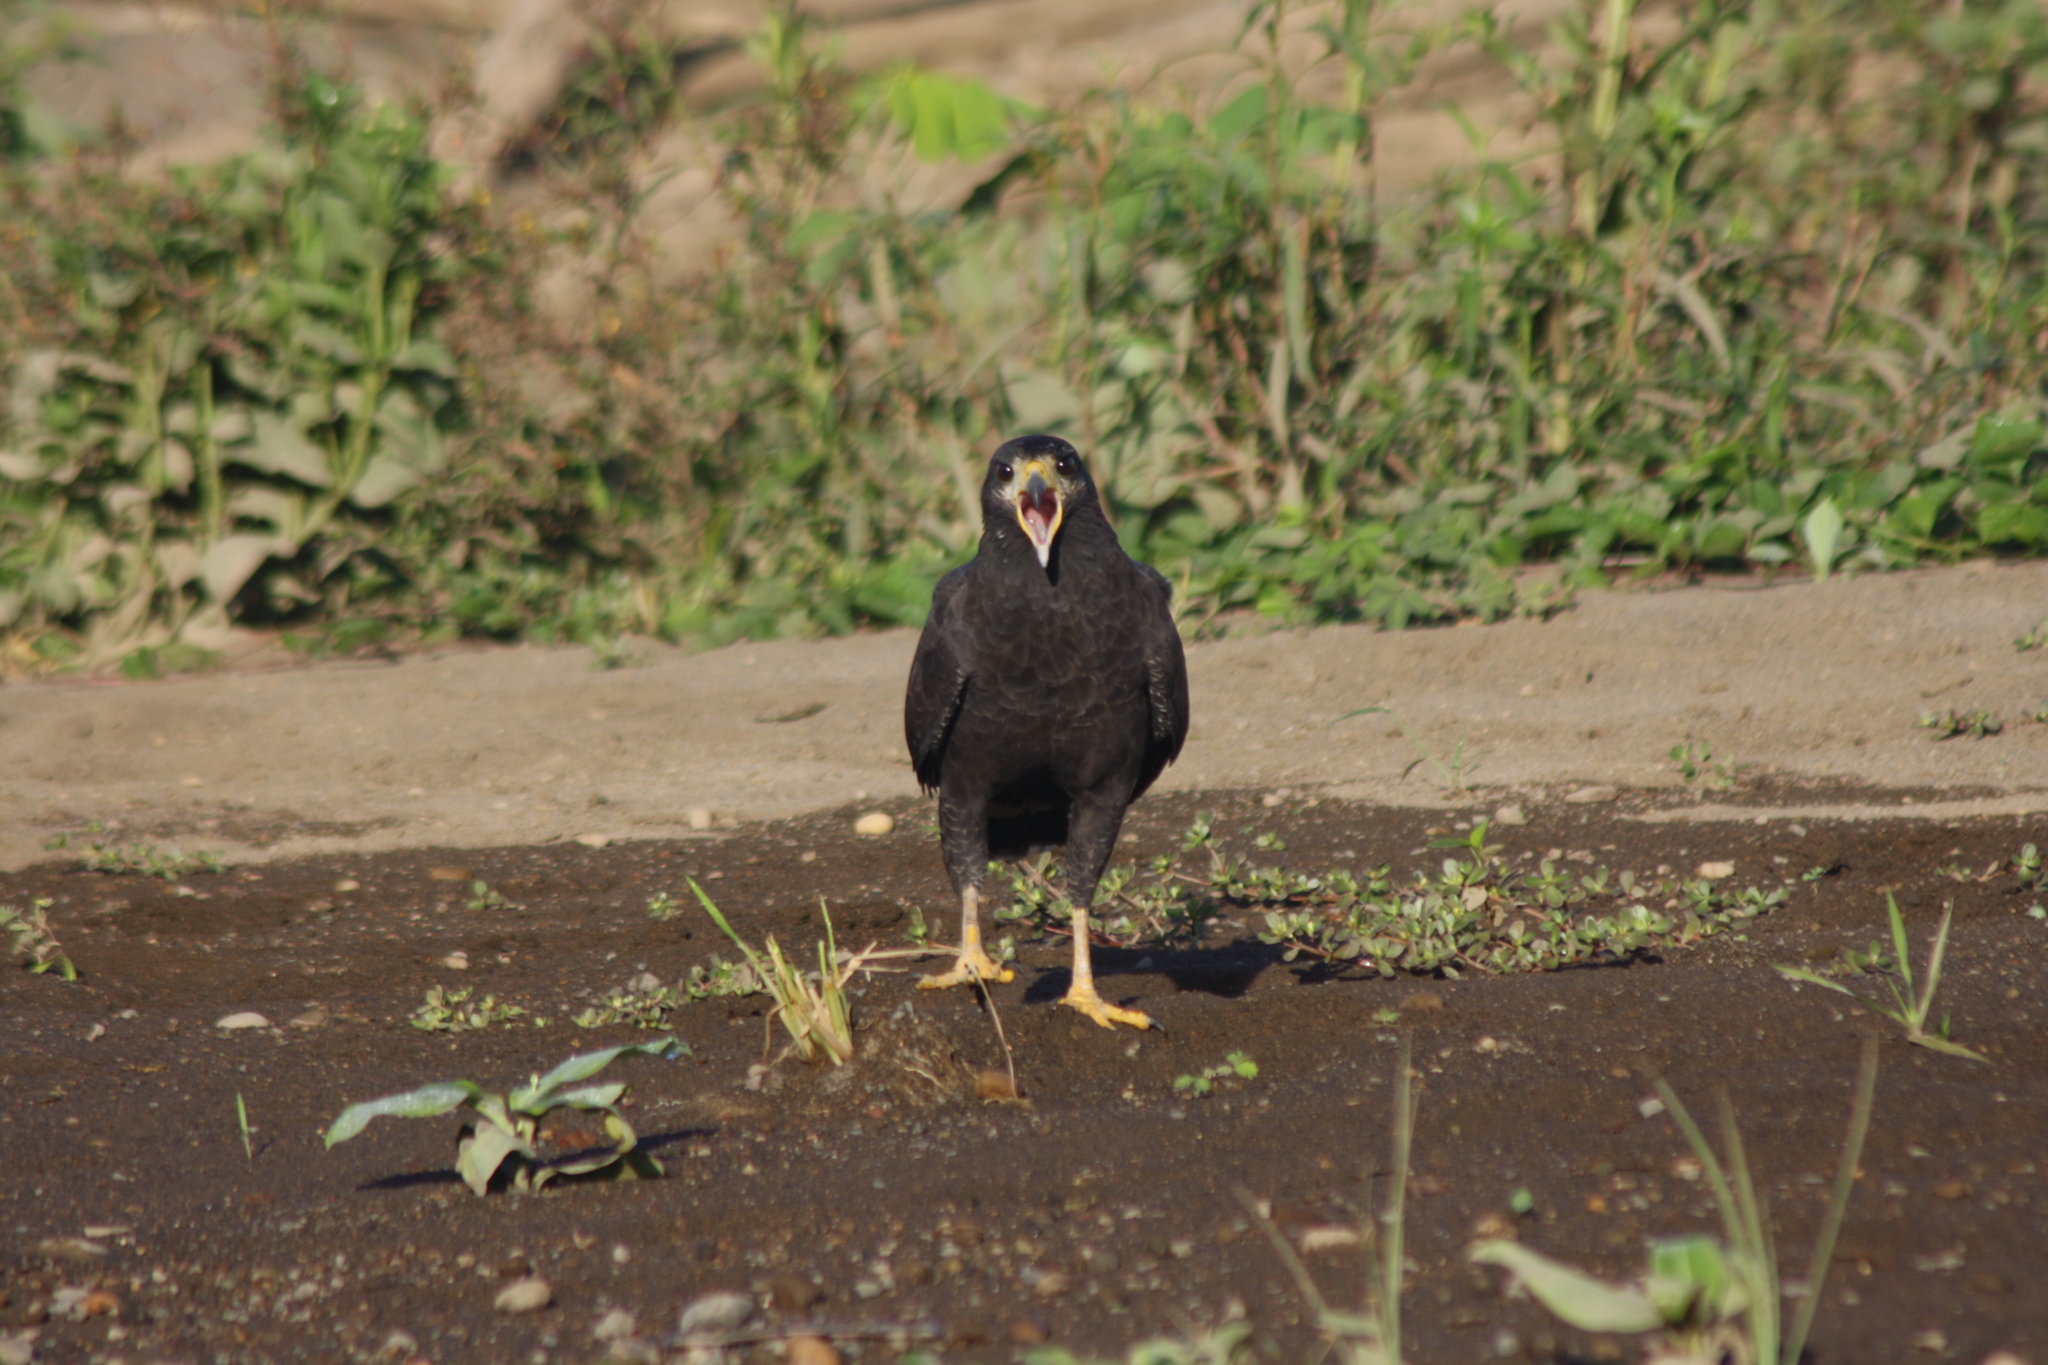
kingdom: Animalia
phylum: Chordata
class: Aves
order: Accipitriformes
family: Accipitridae
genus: Buteogallus
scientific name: Buteogallus anthracinus
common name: Common black hawk
